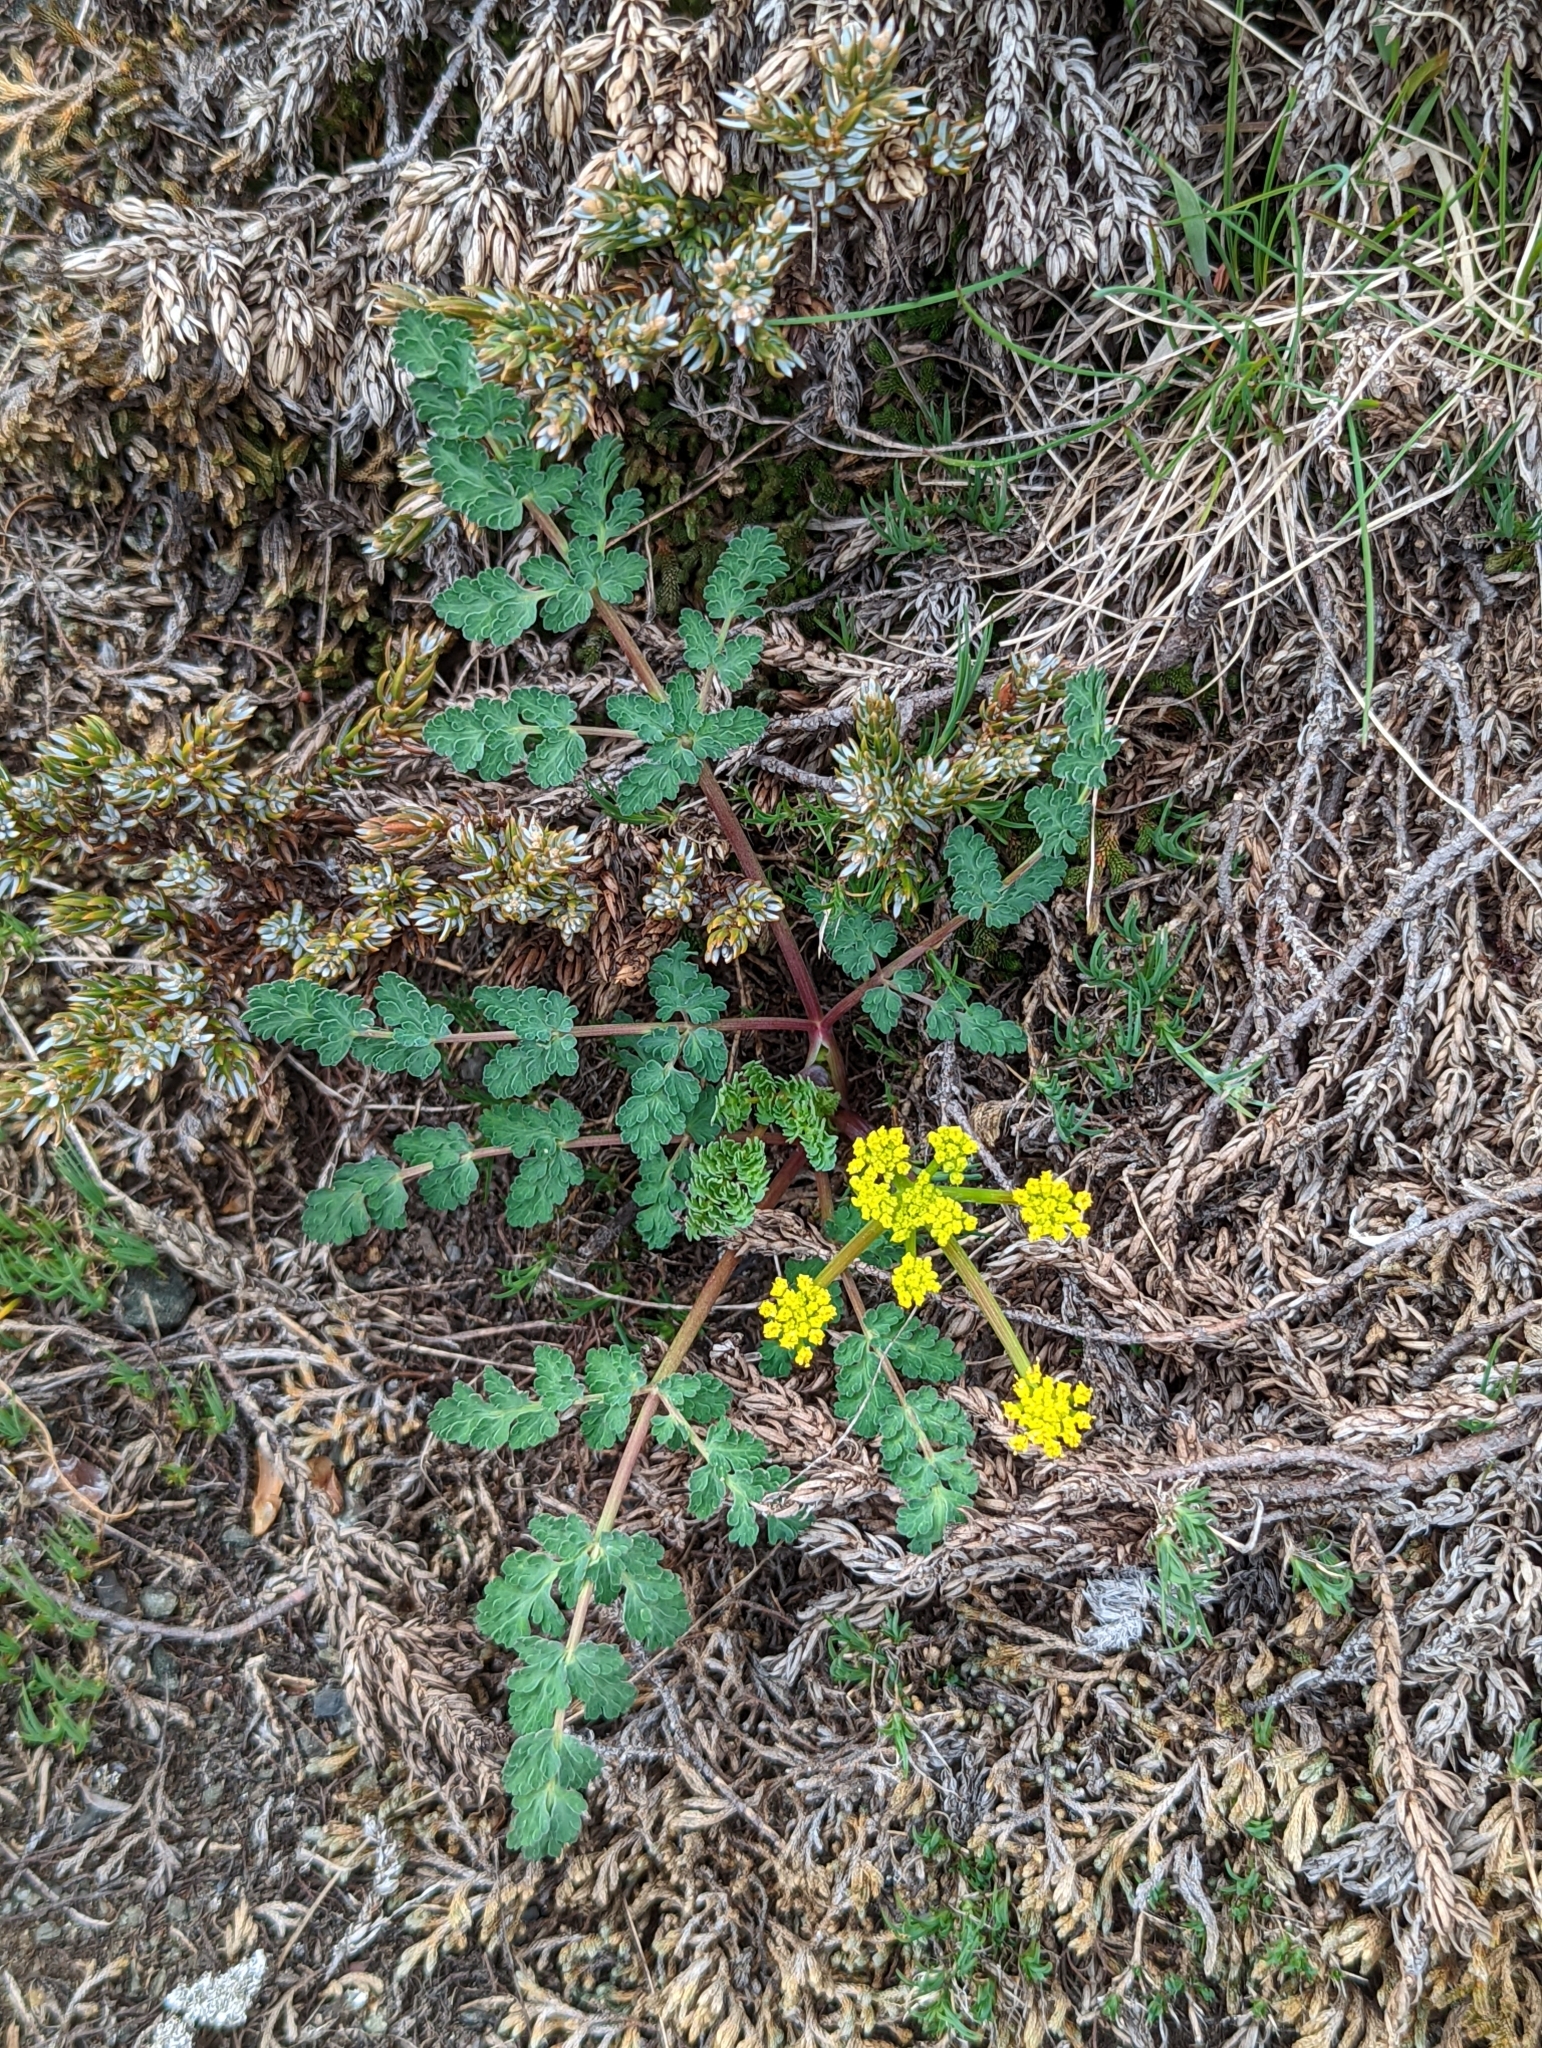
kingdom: Plantae
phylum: Tracheophyta
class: Magnoliopsida
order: Apiales
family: Apiaceae
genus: Lomatium
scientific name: Lomatium martindalei
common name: Cascade desert-parsley
